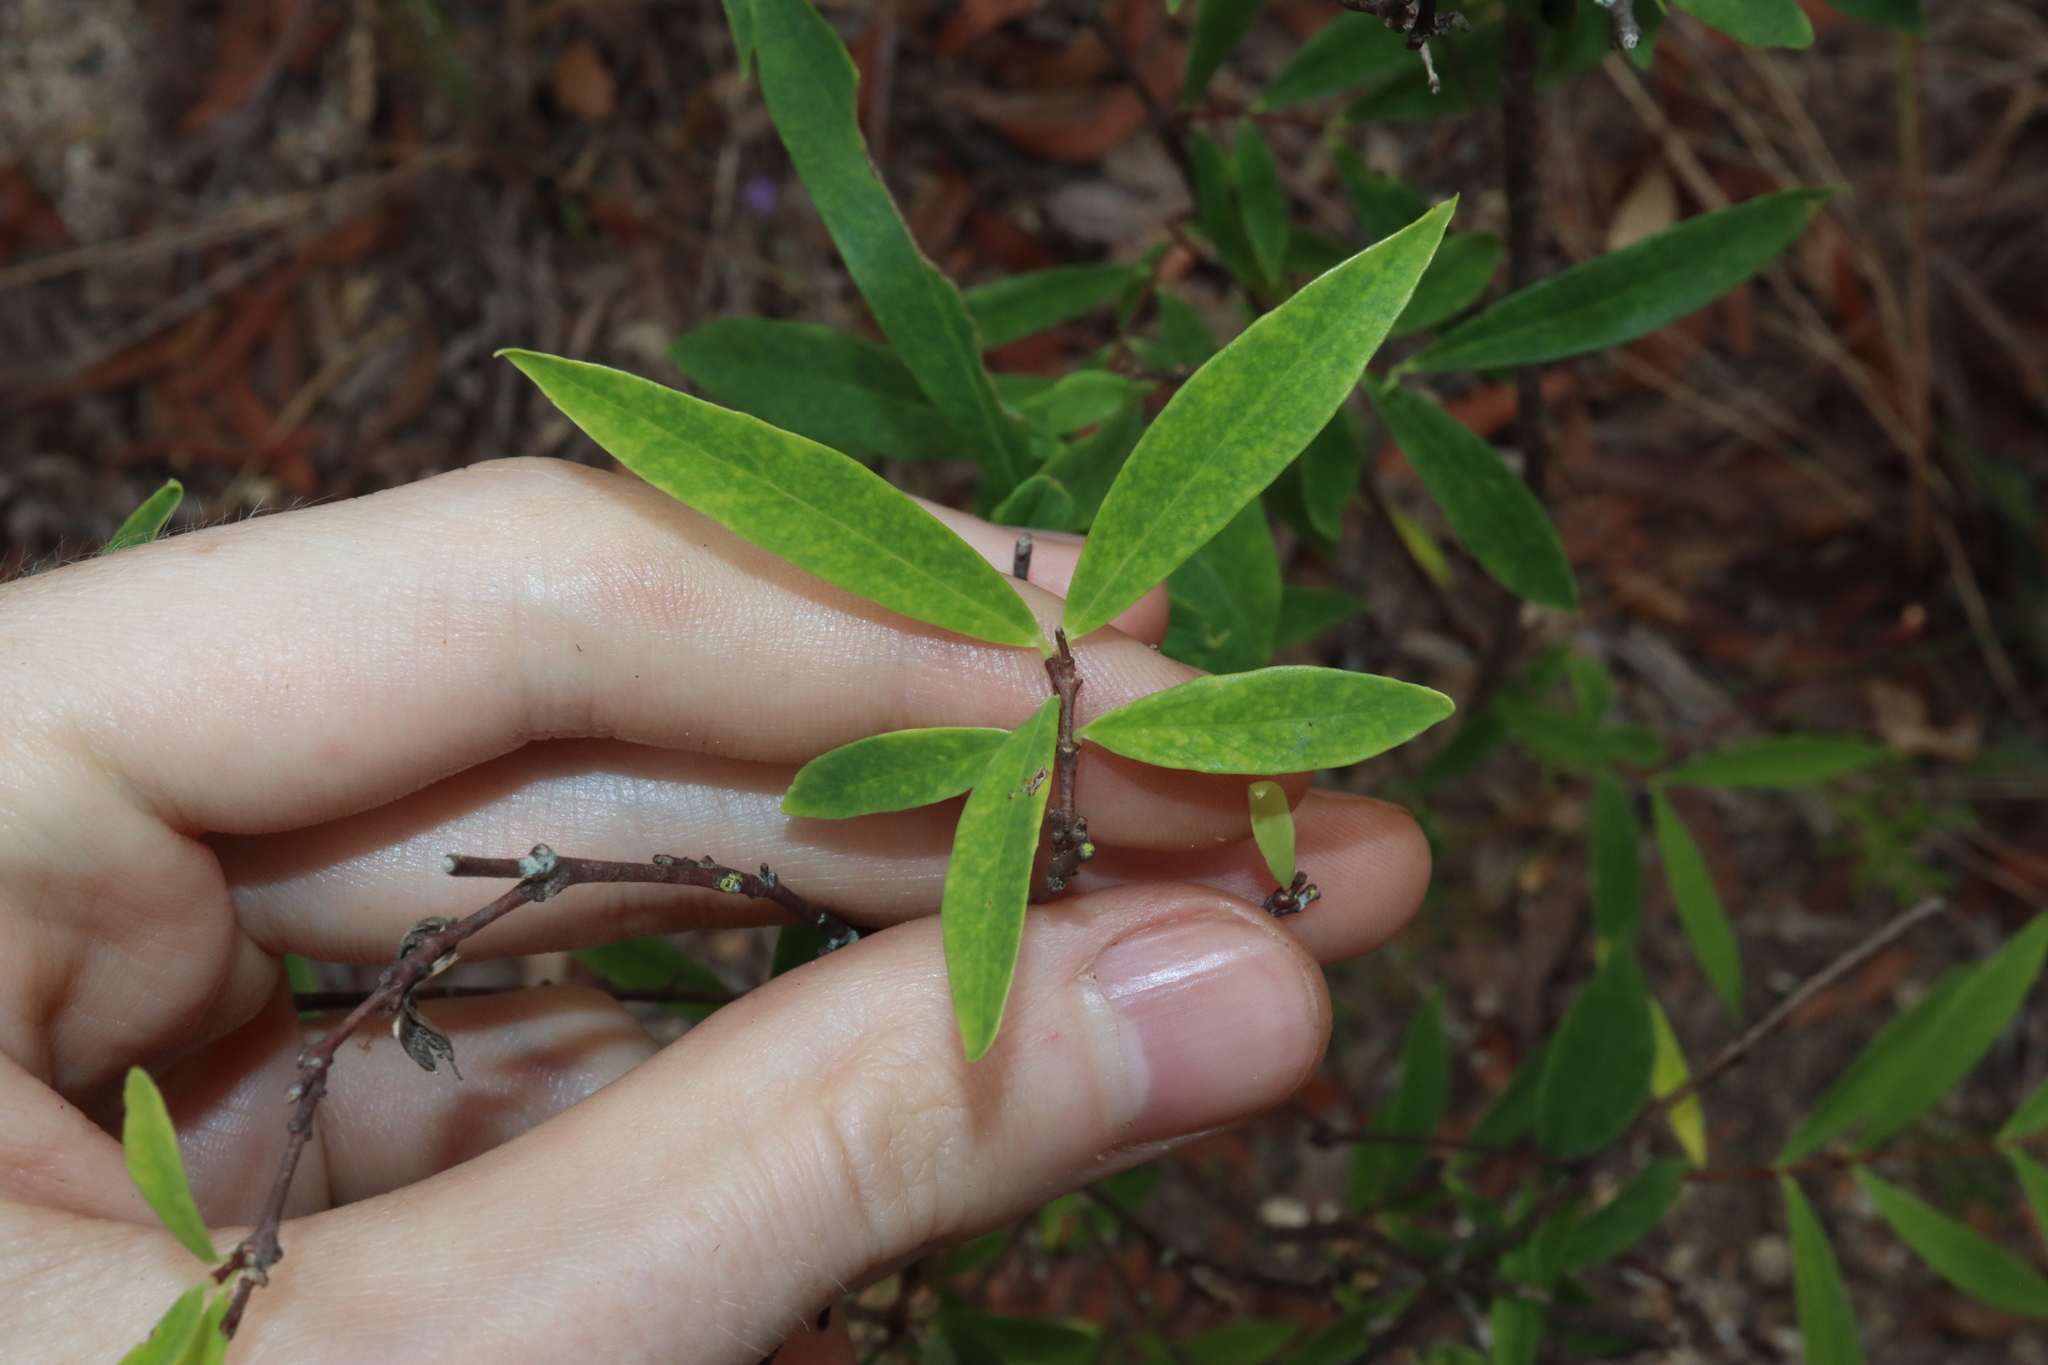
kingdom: Plantae
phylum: Tracheophyta
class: Magnoliopsida
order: Malvales
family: Thymelaeaceae
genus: Wikstroemia
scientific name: Wikstroemia indica
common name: Tiebush
